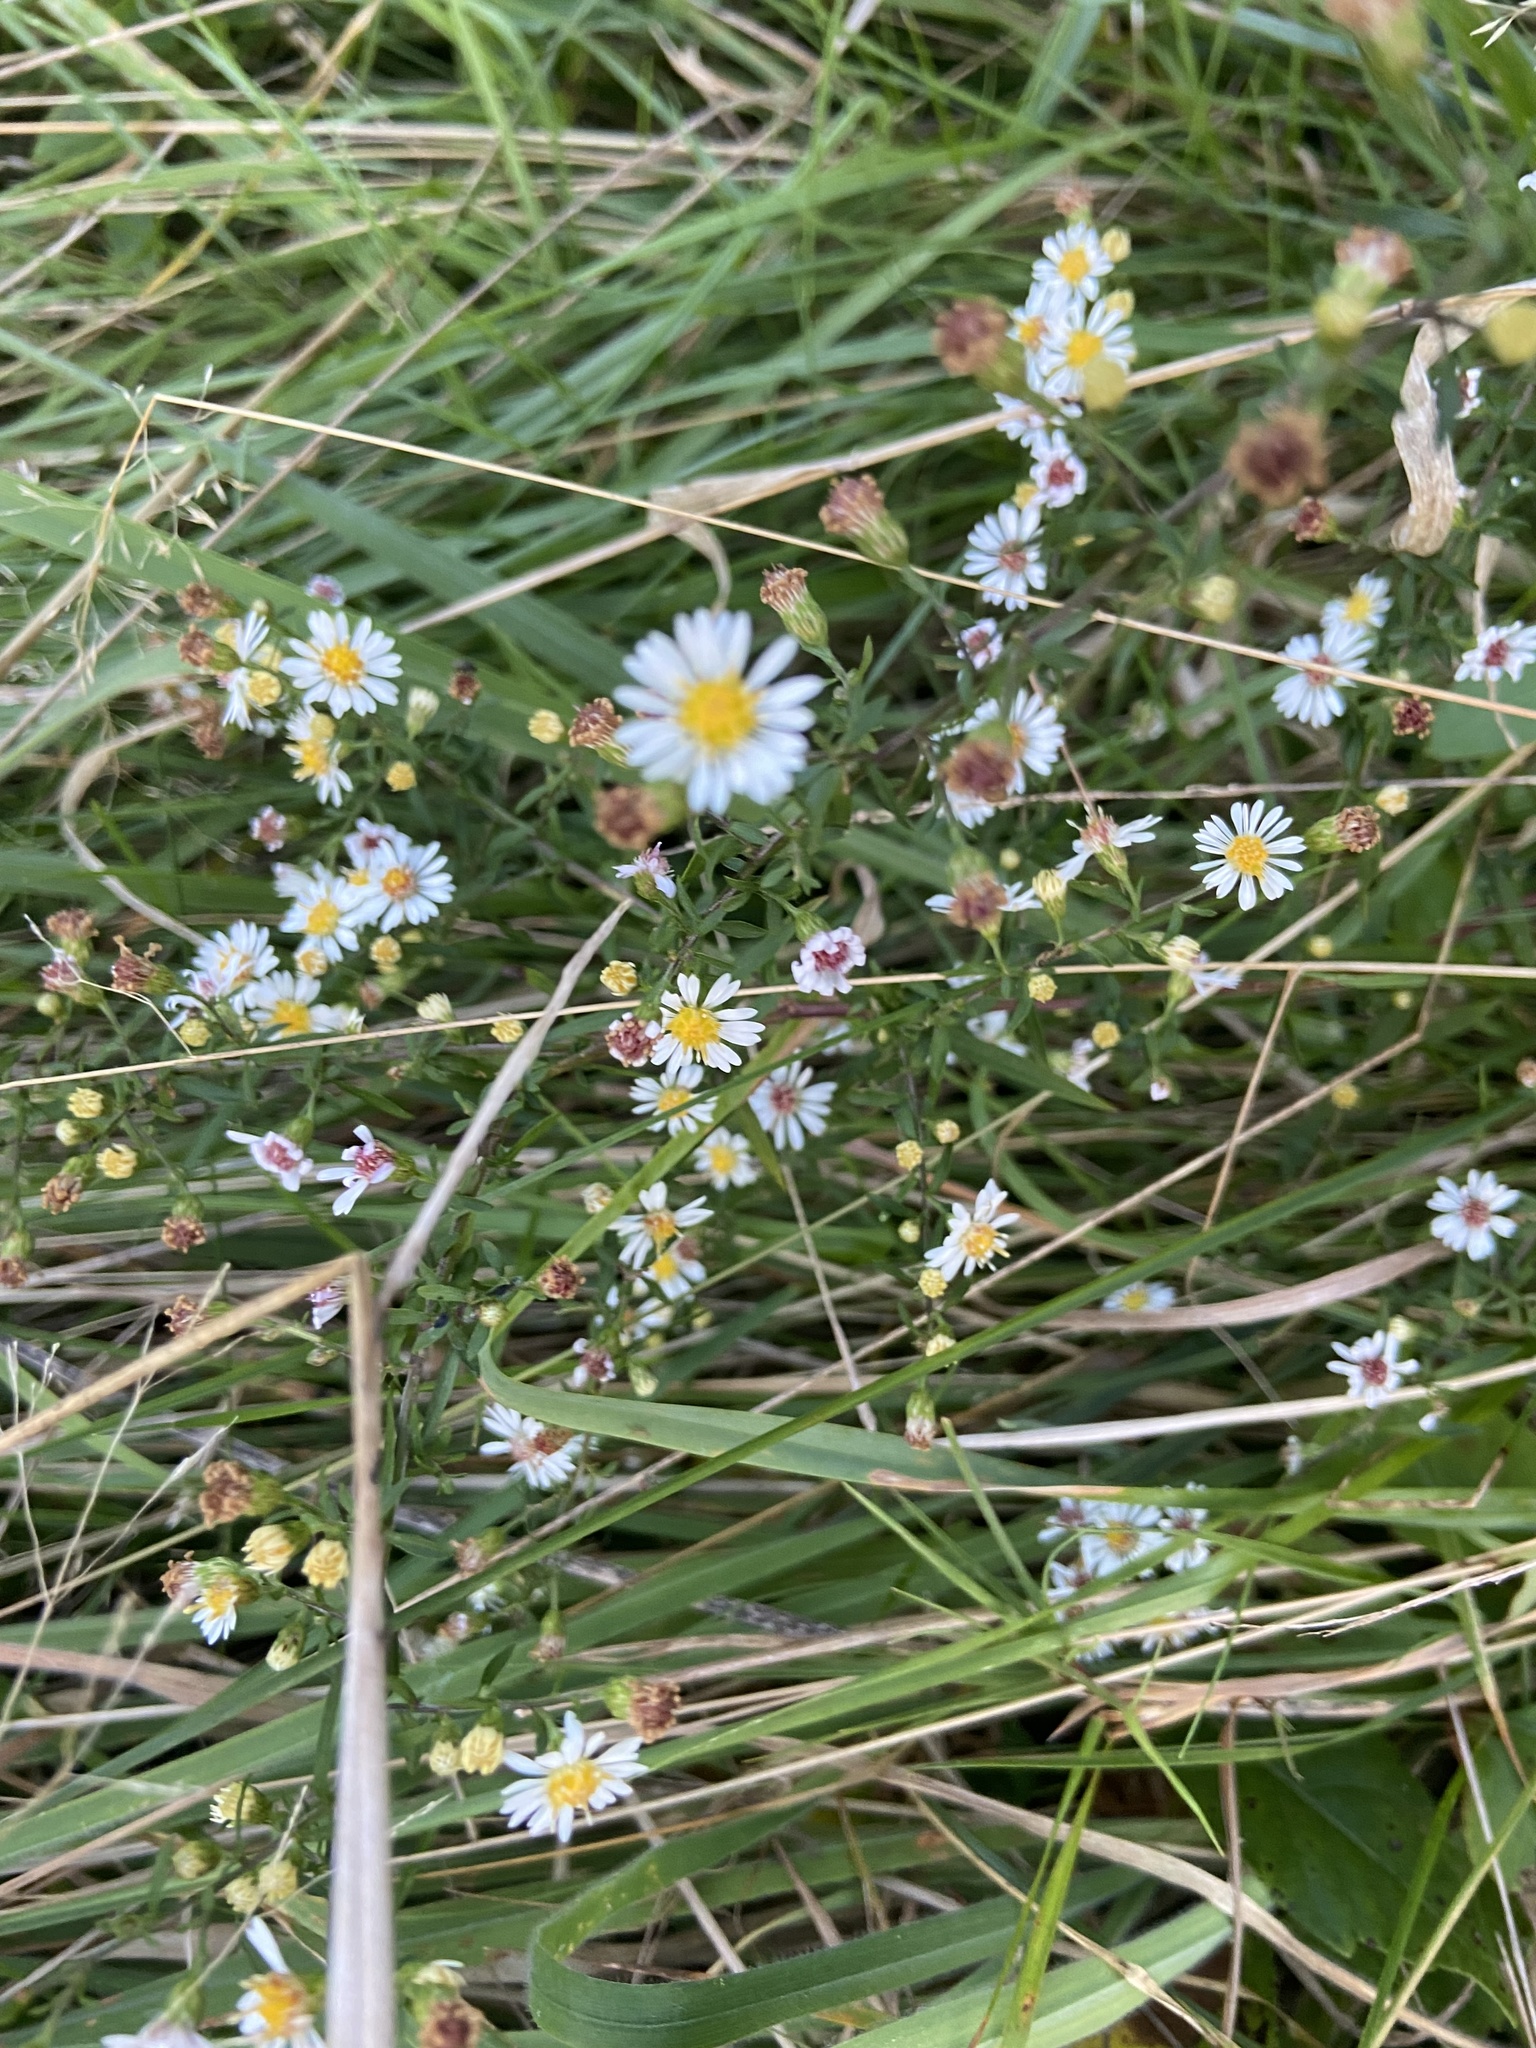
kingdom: Plantae
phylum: Tracheophyta
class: Magnoliopsida
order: Asterales
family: Asteraceae
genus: Symphyotrichum
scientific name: Symphyotrichum racemosum
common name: Small white aster
